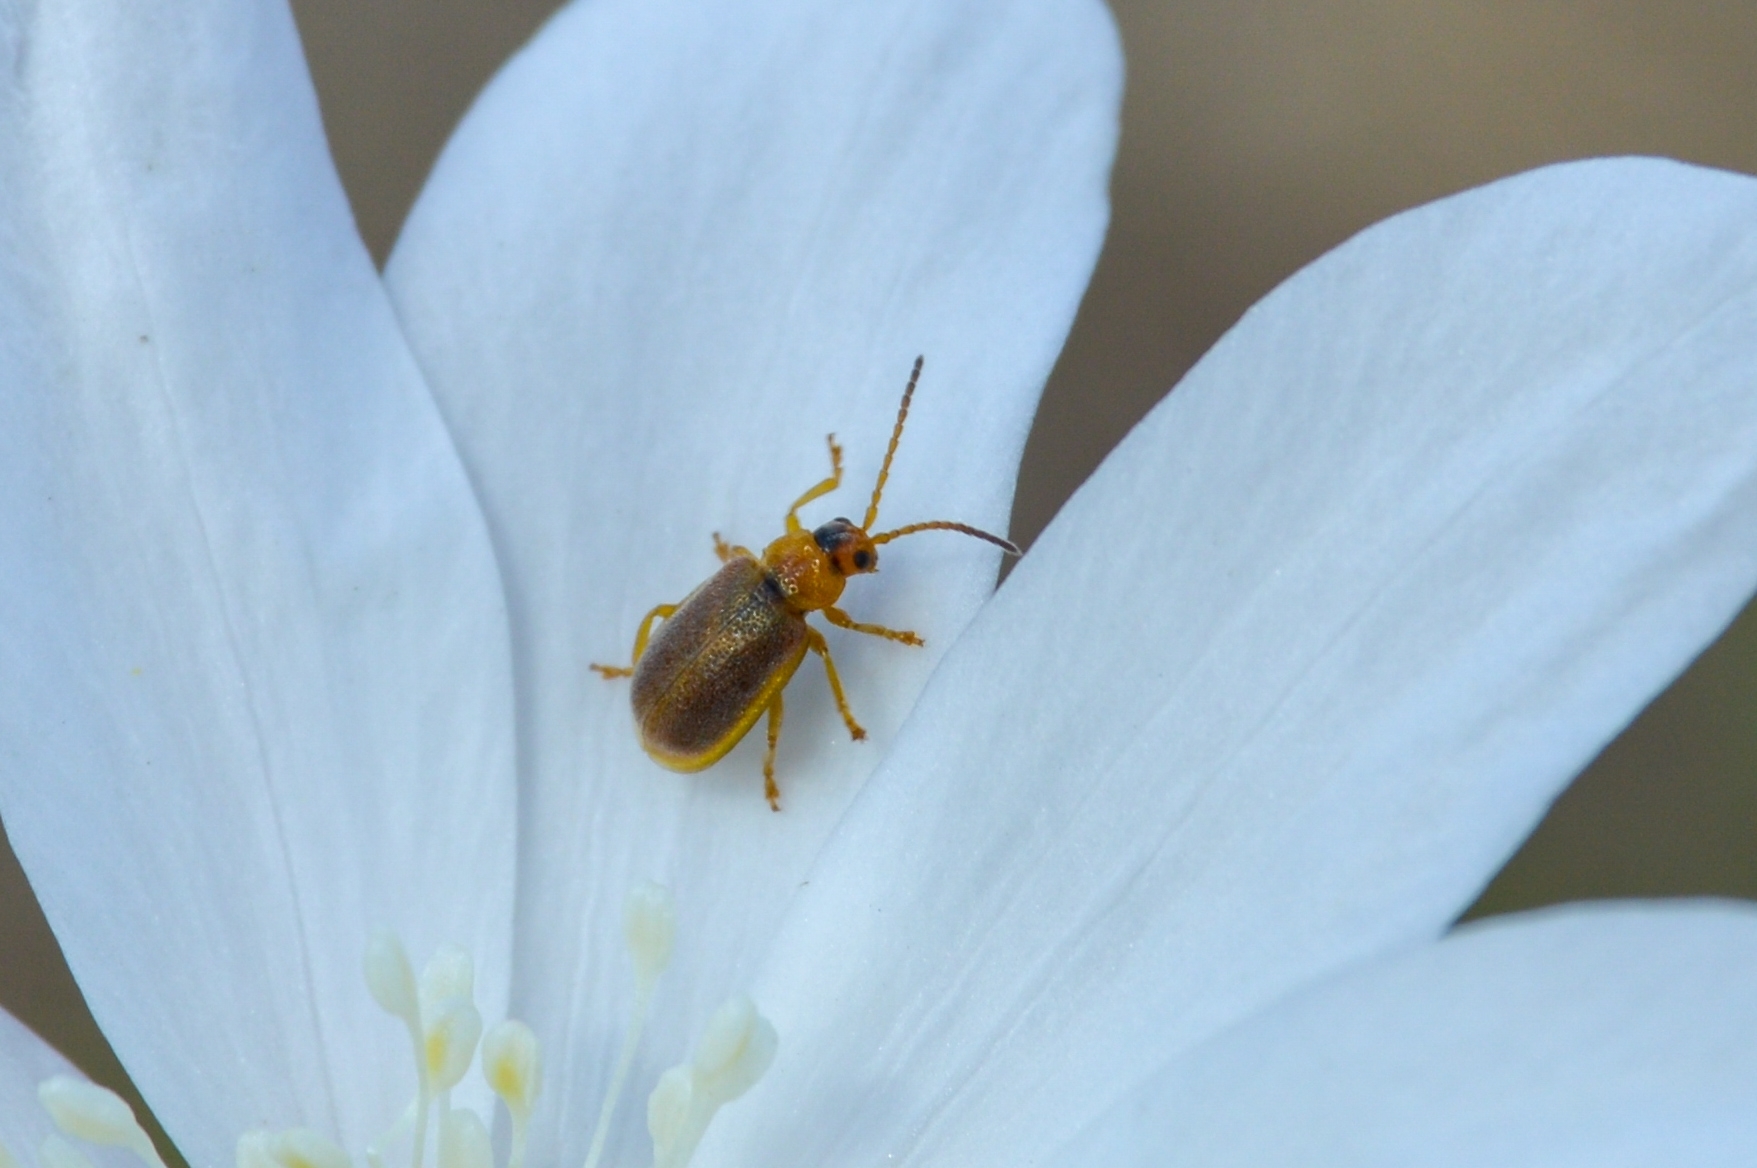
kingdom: Animalia
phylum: Arthropoda
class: Insecta
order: Coleoptera
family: Chrysomelidae
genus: Galerucella
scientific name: Galerucella tenella
